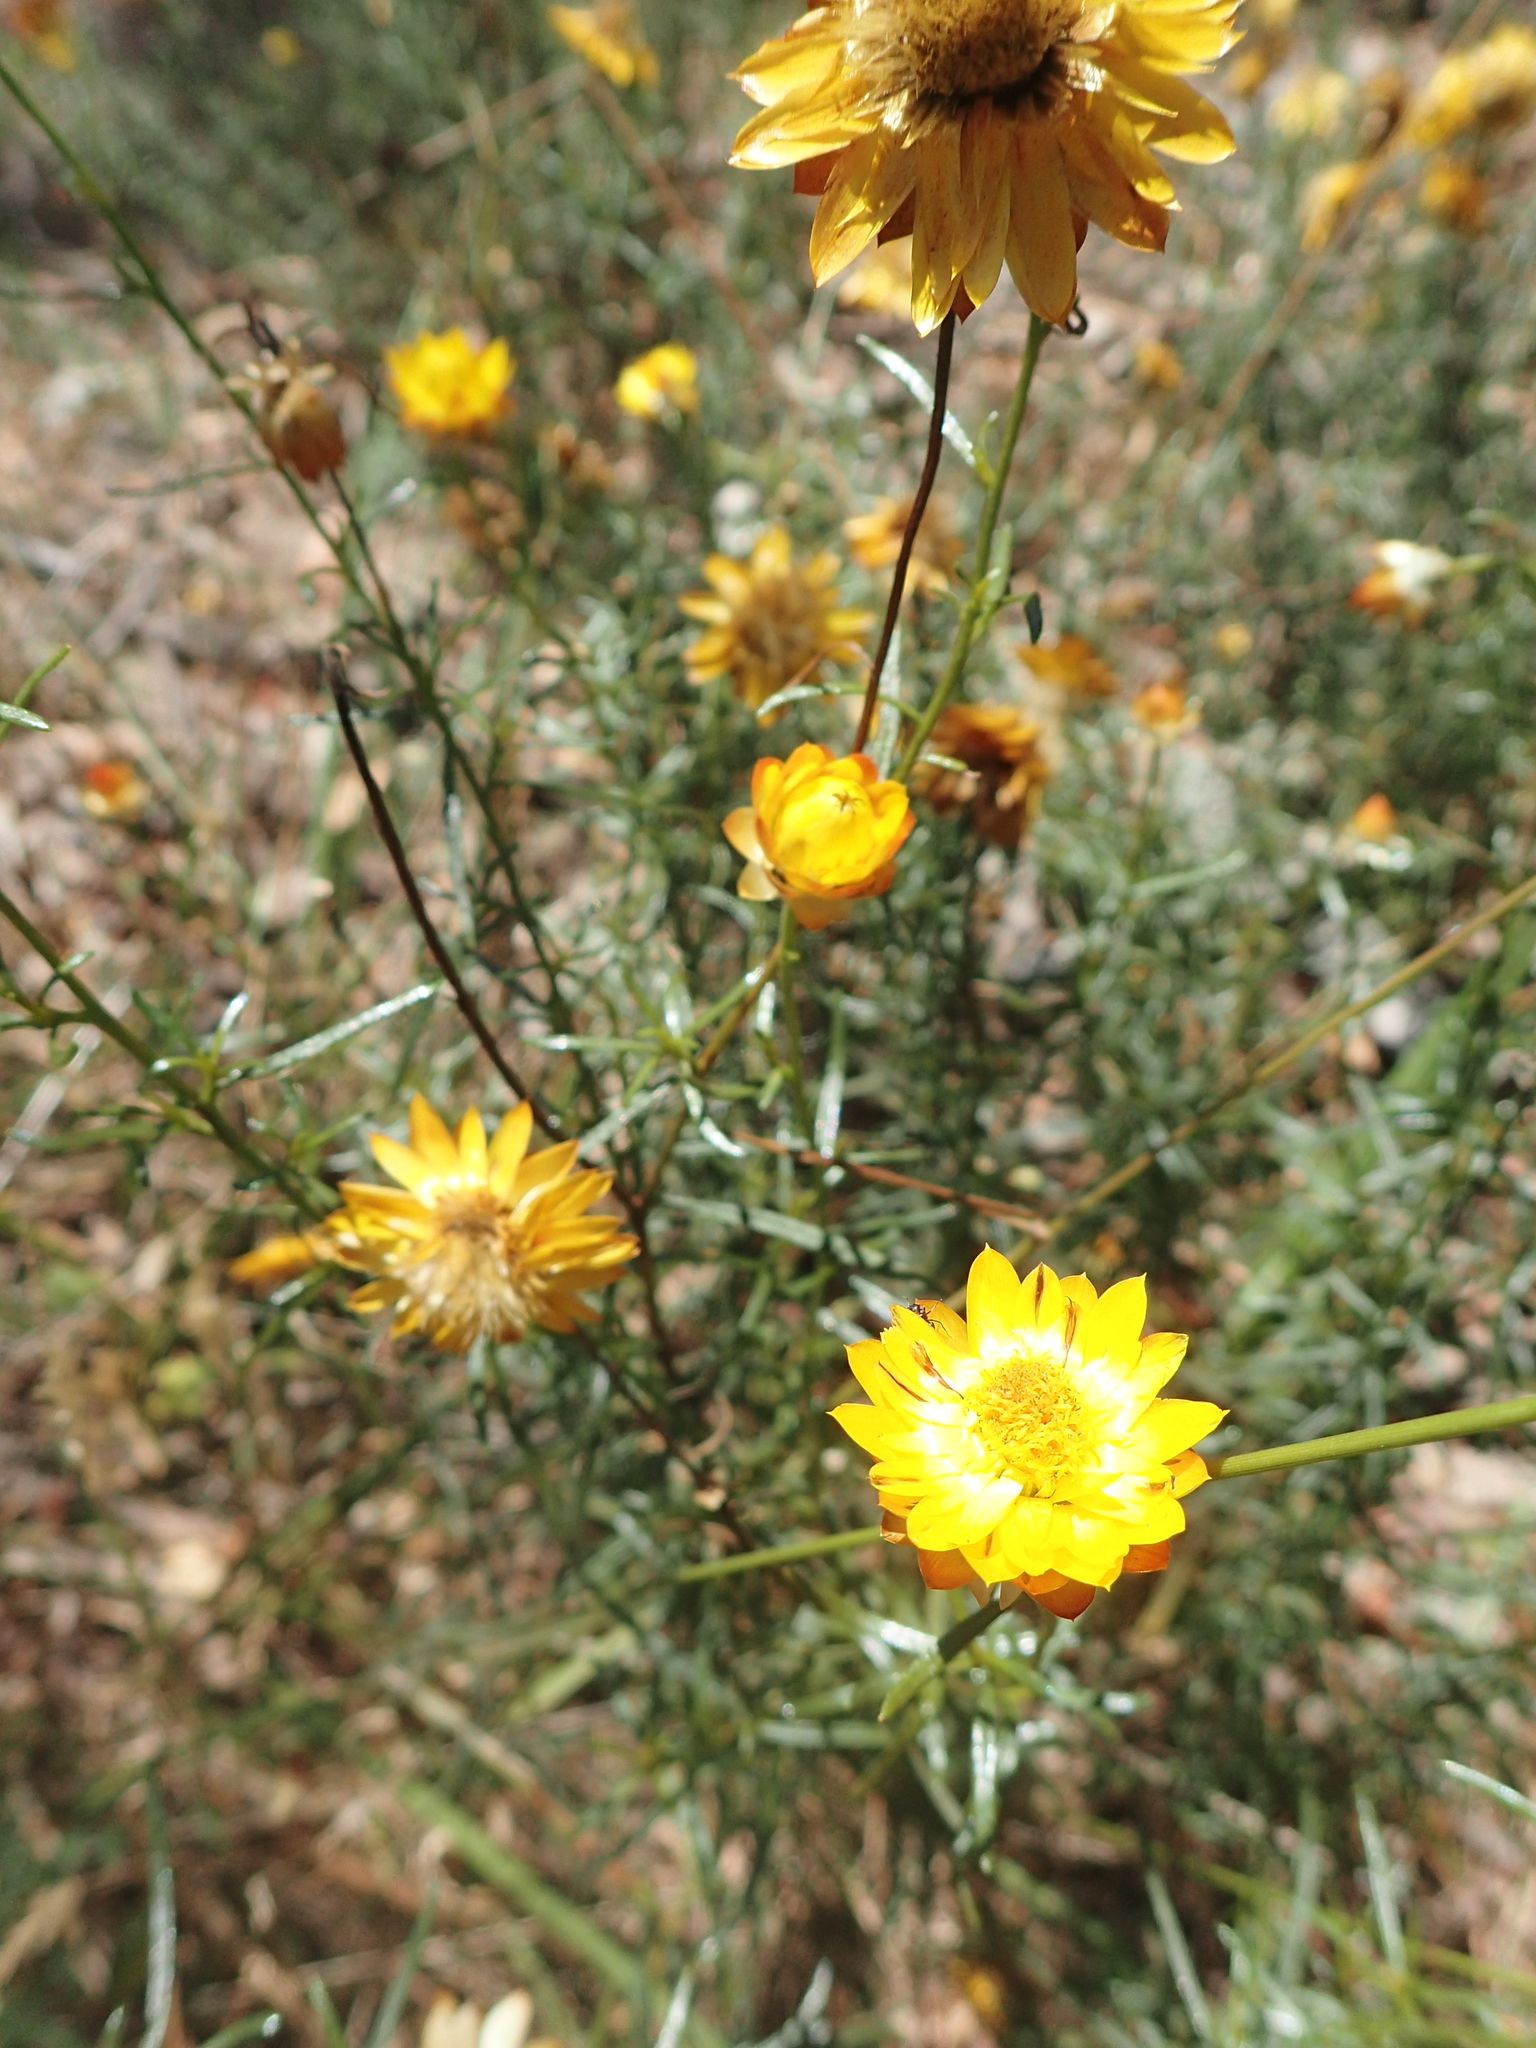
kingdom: Plantae
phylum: Tracheophyta
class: Magnoliopsida
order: Asterales
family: Asteraceae
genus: Xerochrysum
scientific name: Xerochrysum viscosum
